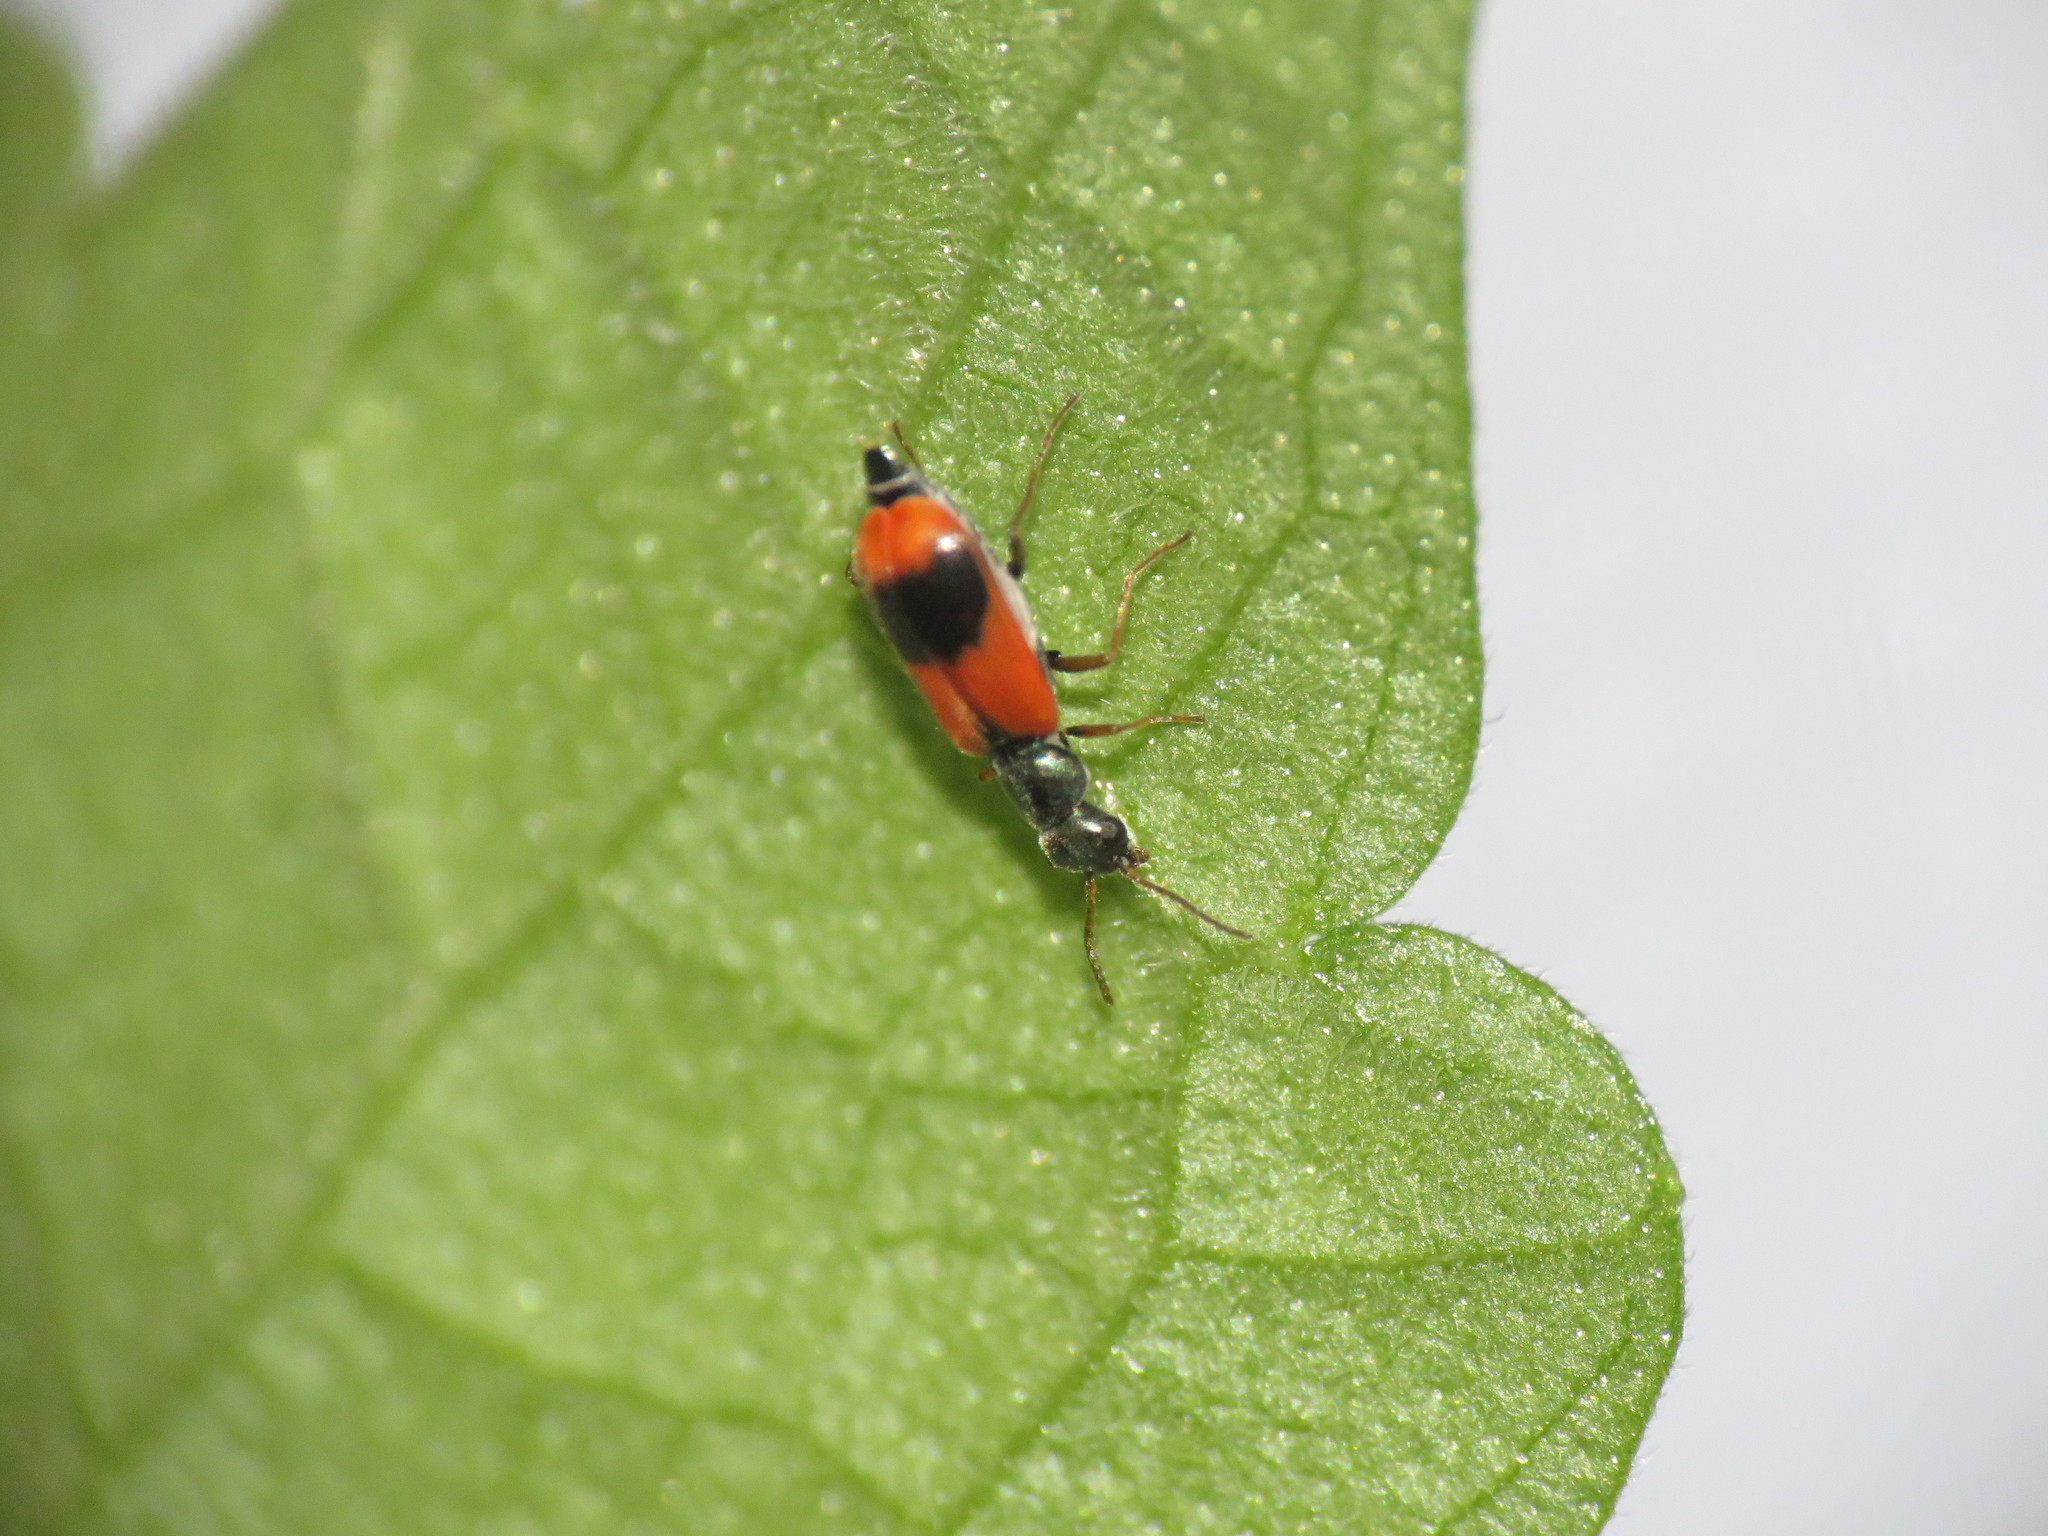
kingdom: Animalia
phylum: Arthropoda
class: Insecta
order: Coleoptera
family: Melyridae
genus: Anthocomus
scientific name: Anthocomus equestris
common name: Black-banded soft-winged flower beetle
